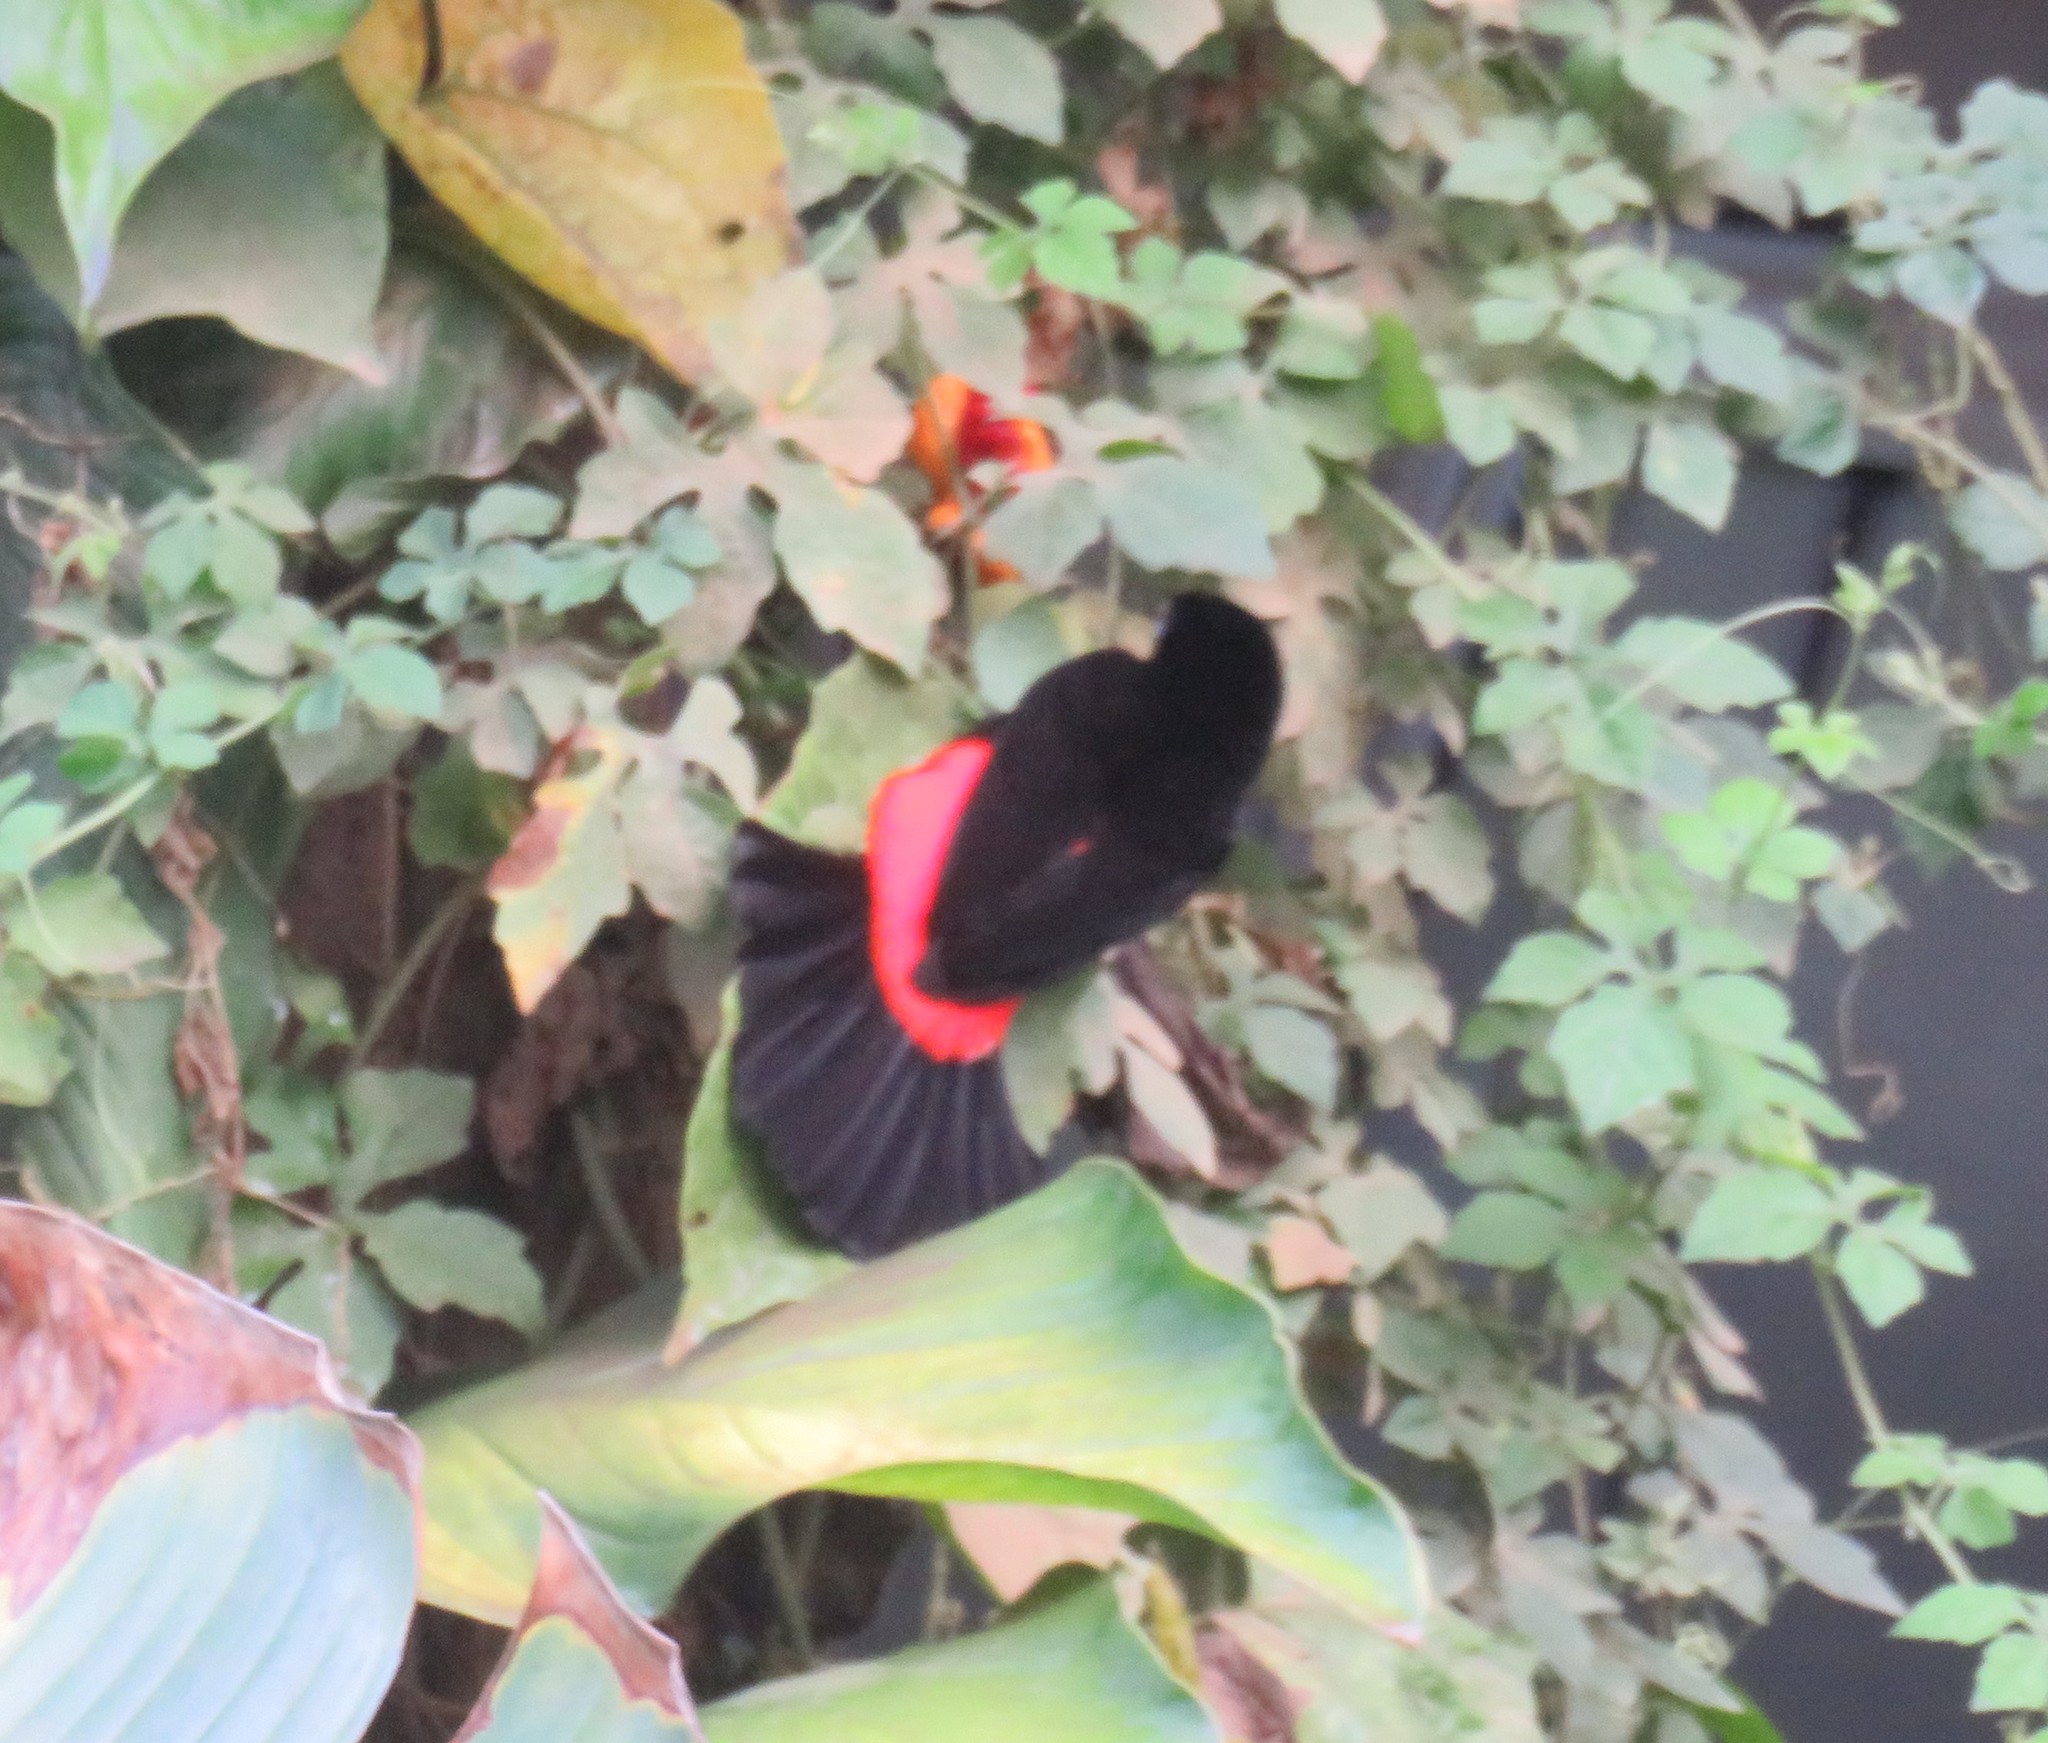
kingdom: Animalia
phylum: Chordata
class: Aves
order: Passeriformes
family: Thraupidae
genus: Ramphocelus
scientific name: Ramphocelus passerinii
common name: Passerini's tanager
